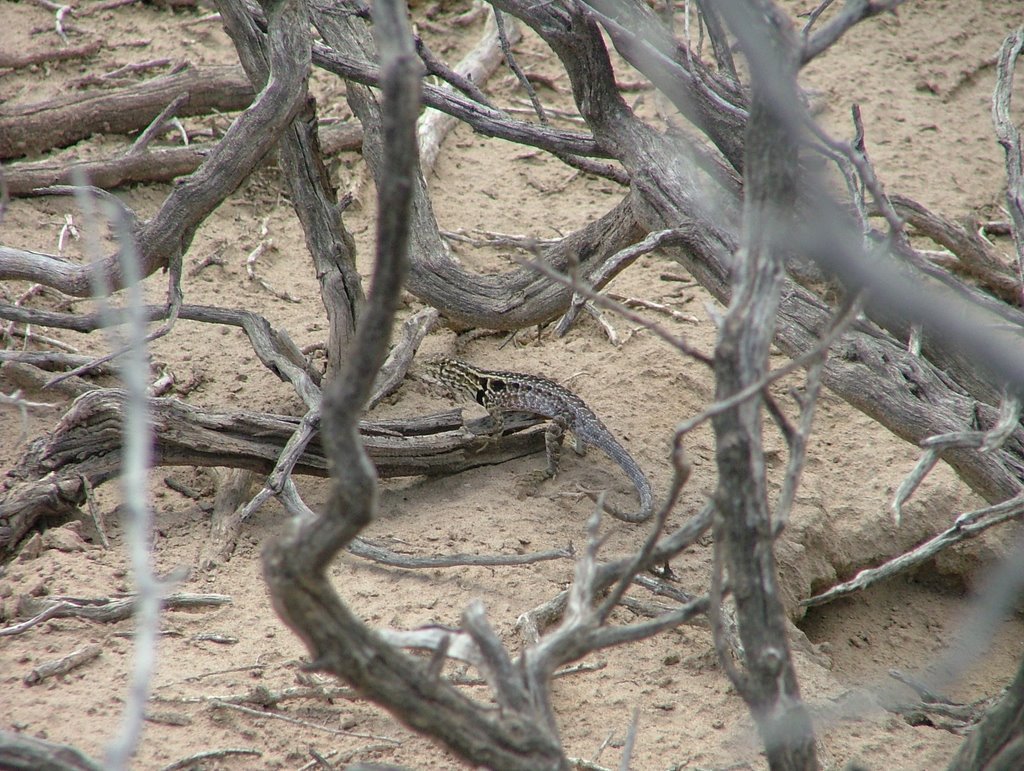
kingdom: Animalia
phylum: Chordata
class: Squamata
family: Liolaemidae
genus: Liolaemus
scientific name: Liolaemus darwinii
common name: Darwin's tree iguana
